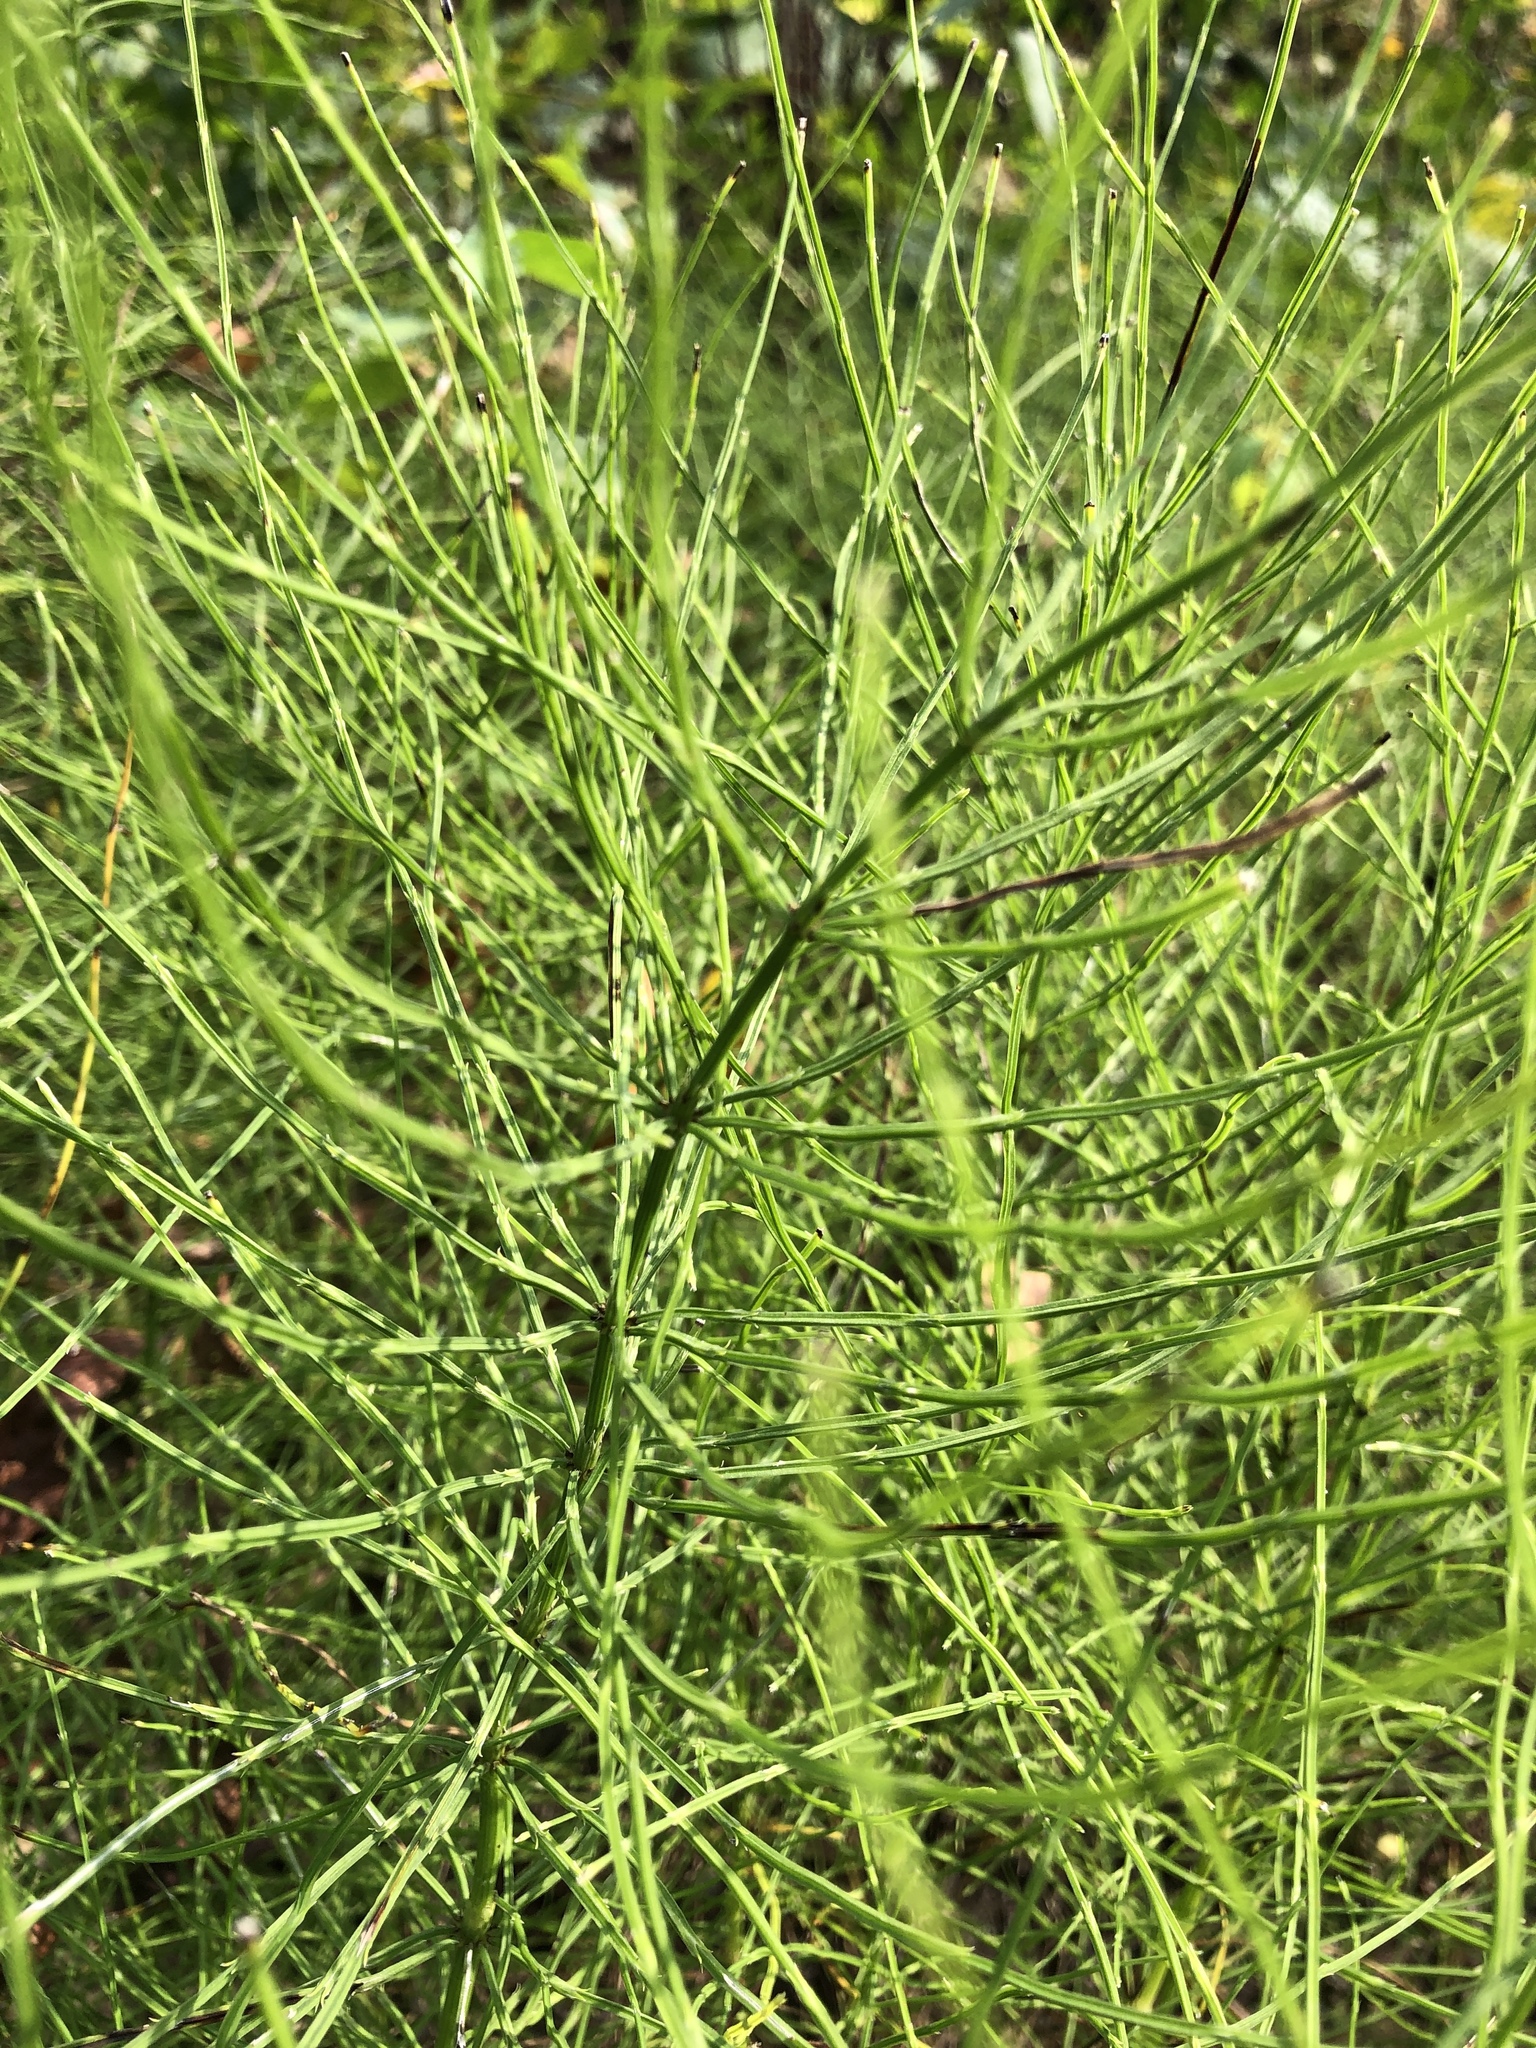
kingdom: Plantae
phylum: Tracheophyta
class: Polypodiopsida
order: Equisetales
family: Equisetaceae
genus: Equisetum
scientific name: Equisetum arvense
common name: Field horsetail
